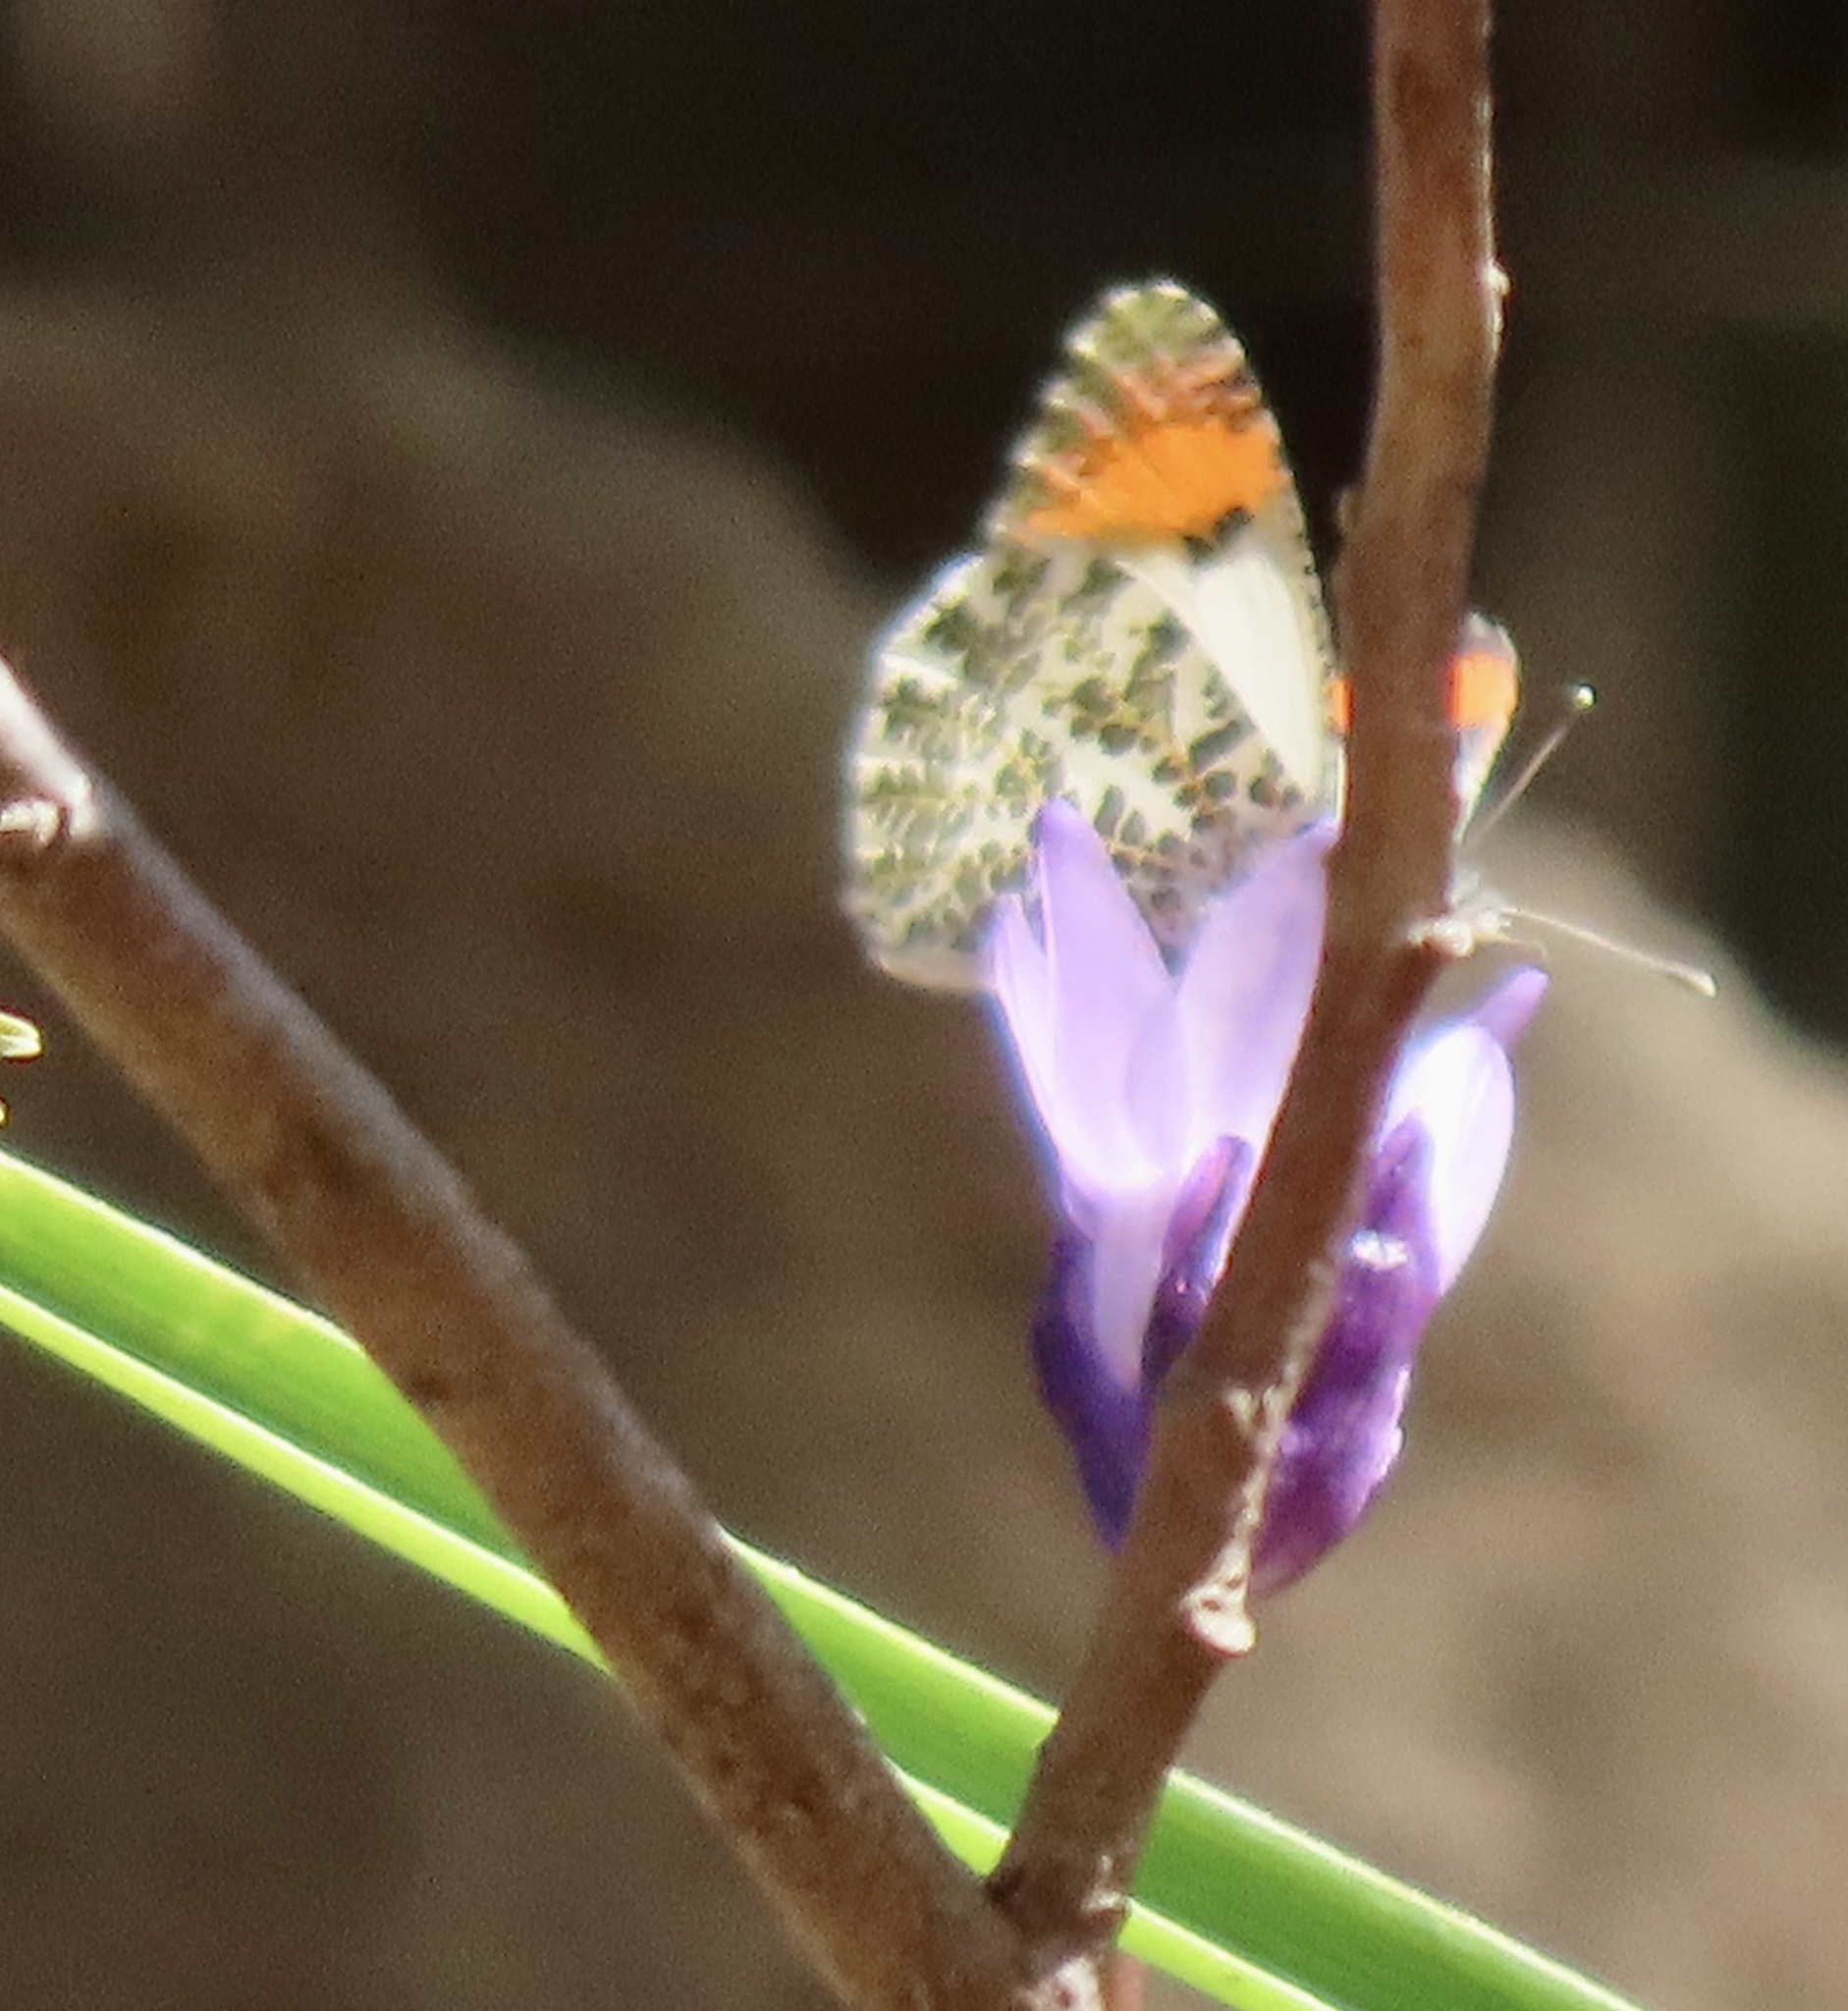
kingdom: Animalia
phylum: Arthropoda
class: Insecta
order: Lepidoptera
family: Pieridae
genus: Anthocharis
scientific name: Anthocharis sara
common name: Sara's orangetip
